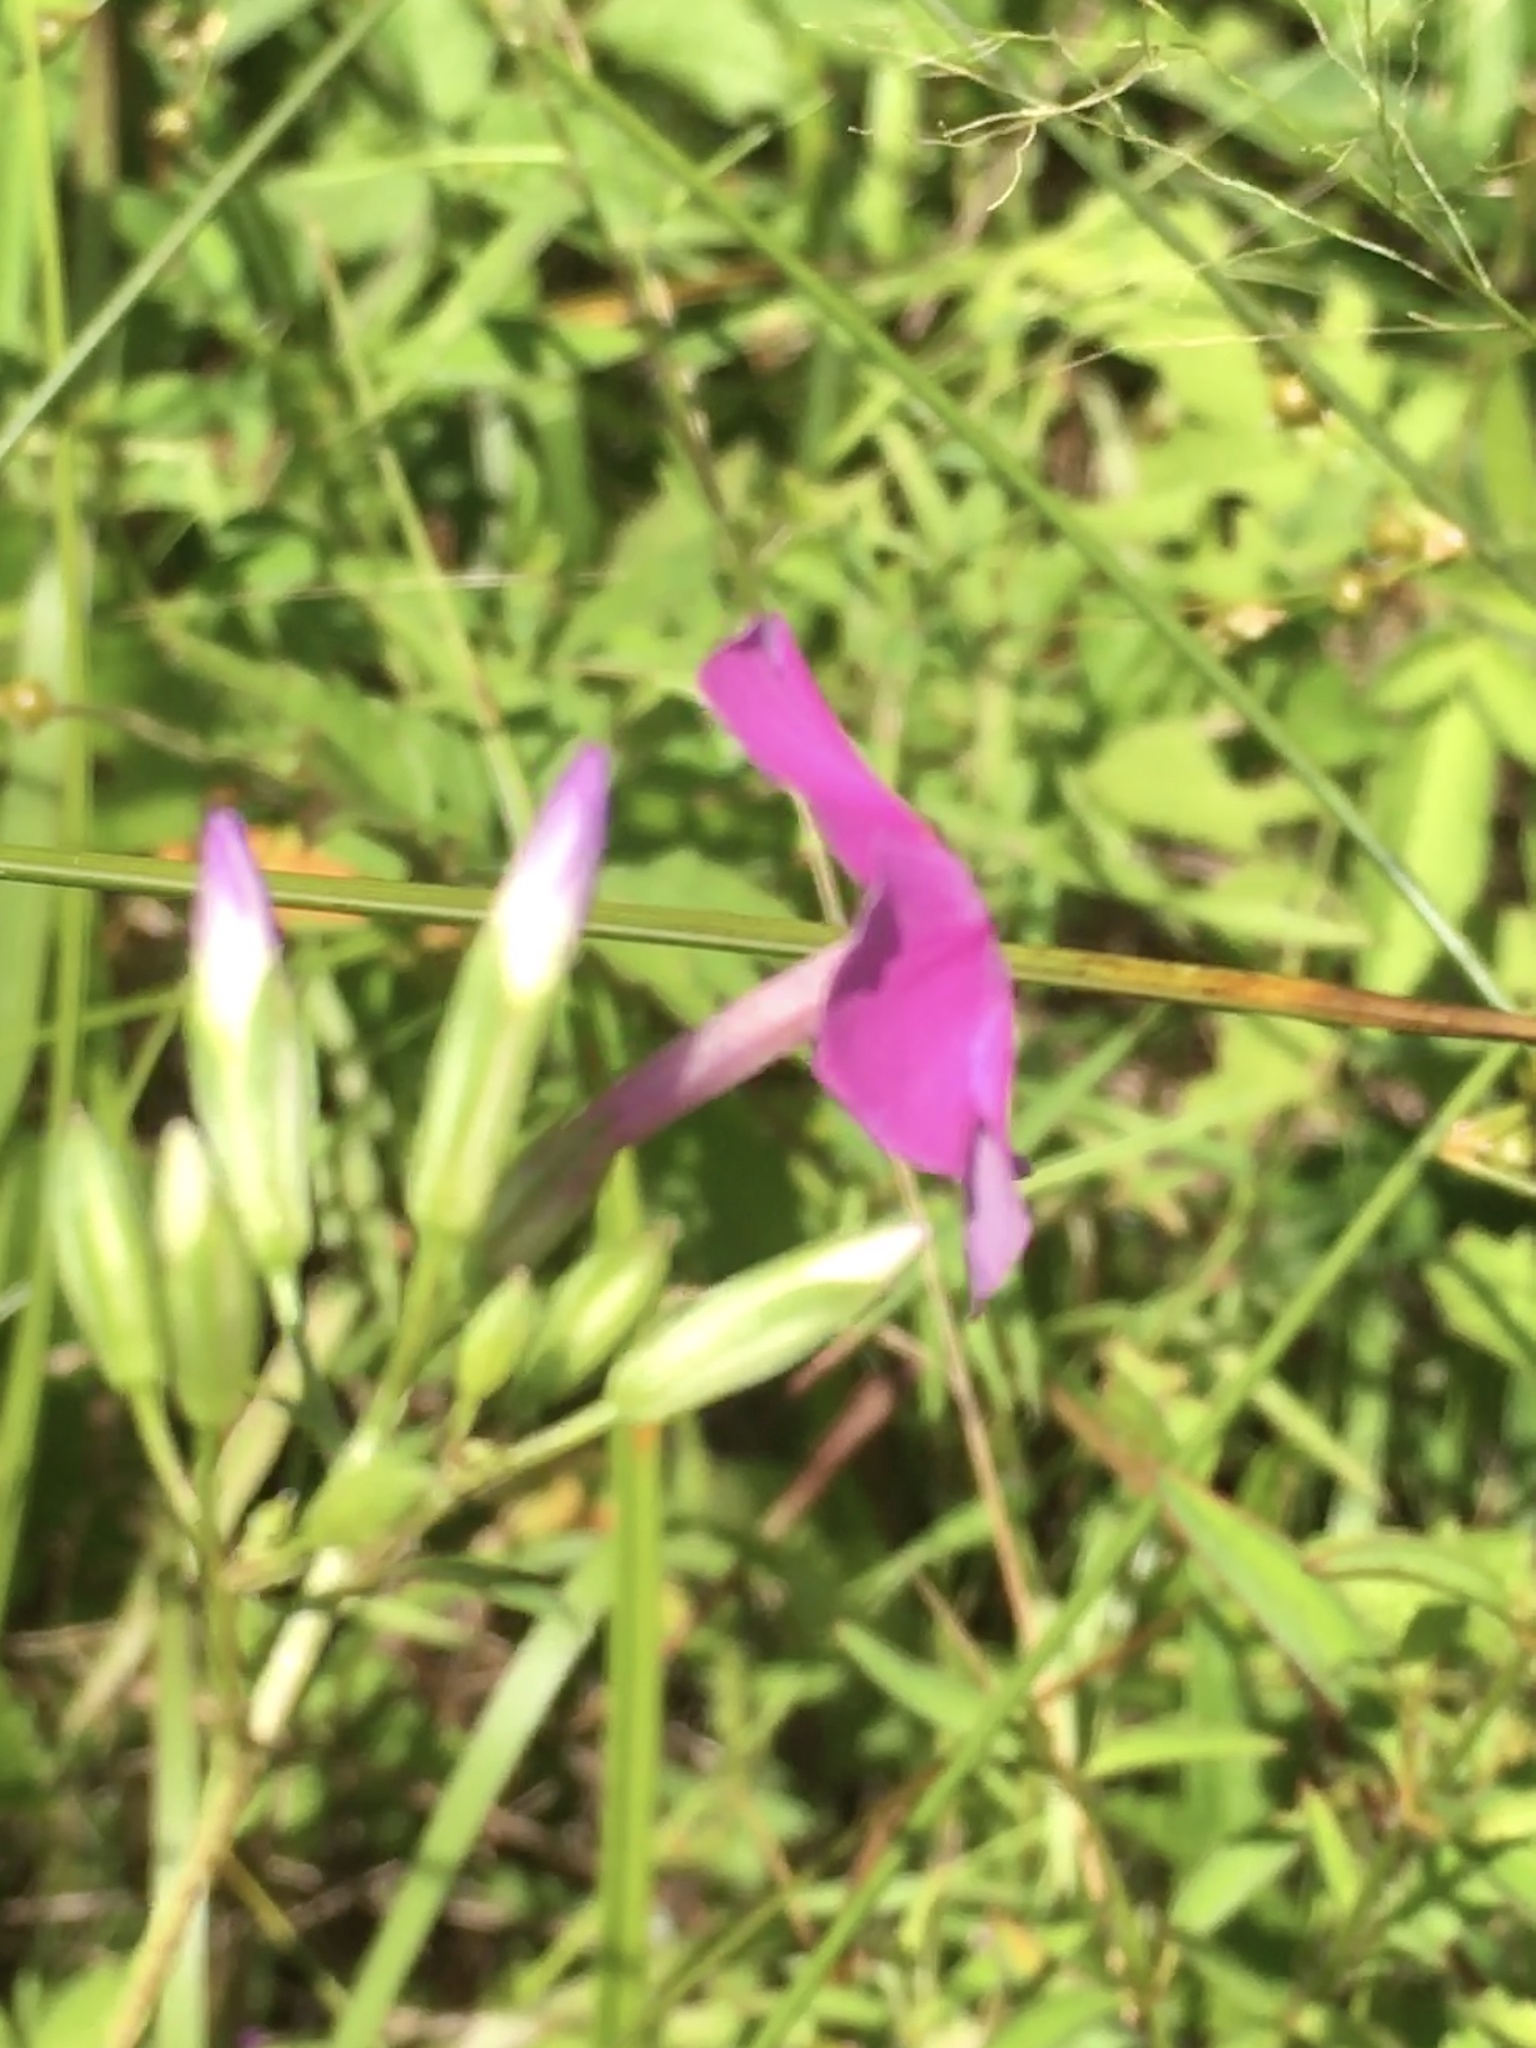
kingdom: Plantae
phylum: Tracheophyta
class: Magnoliopsida
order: Ericales
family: Polemoniaceae
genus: Phlox
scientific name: Phlox glaberrima
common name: Smooth phlox
